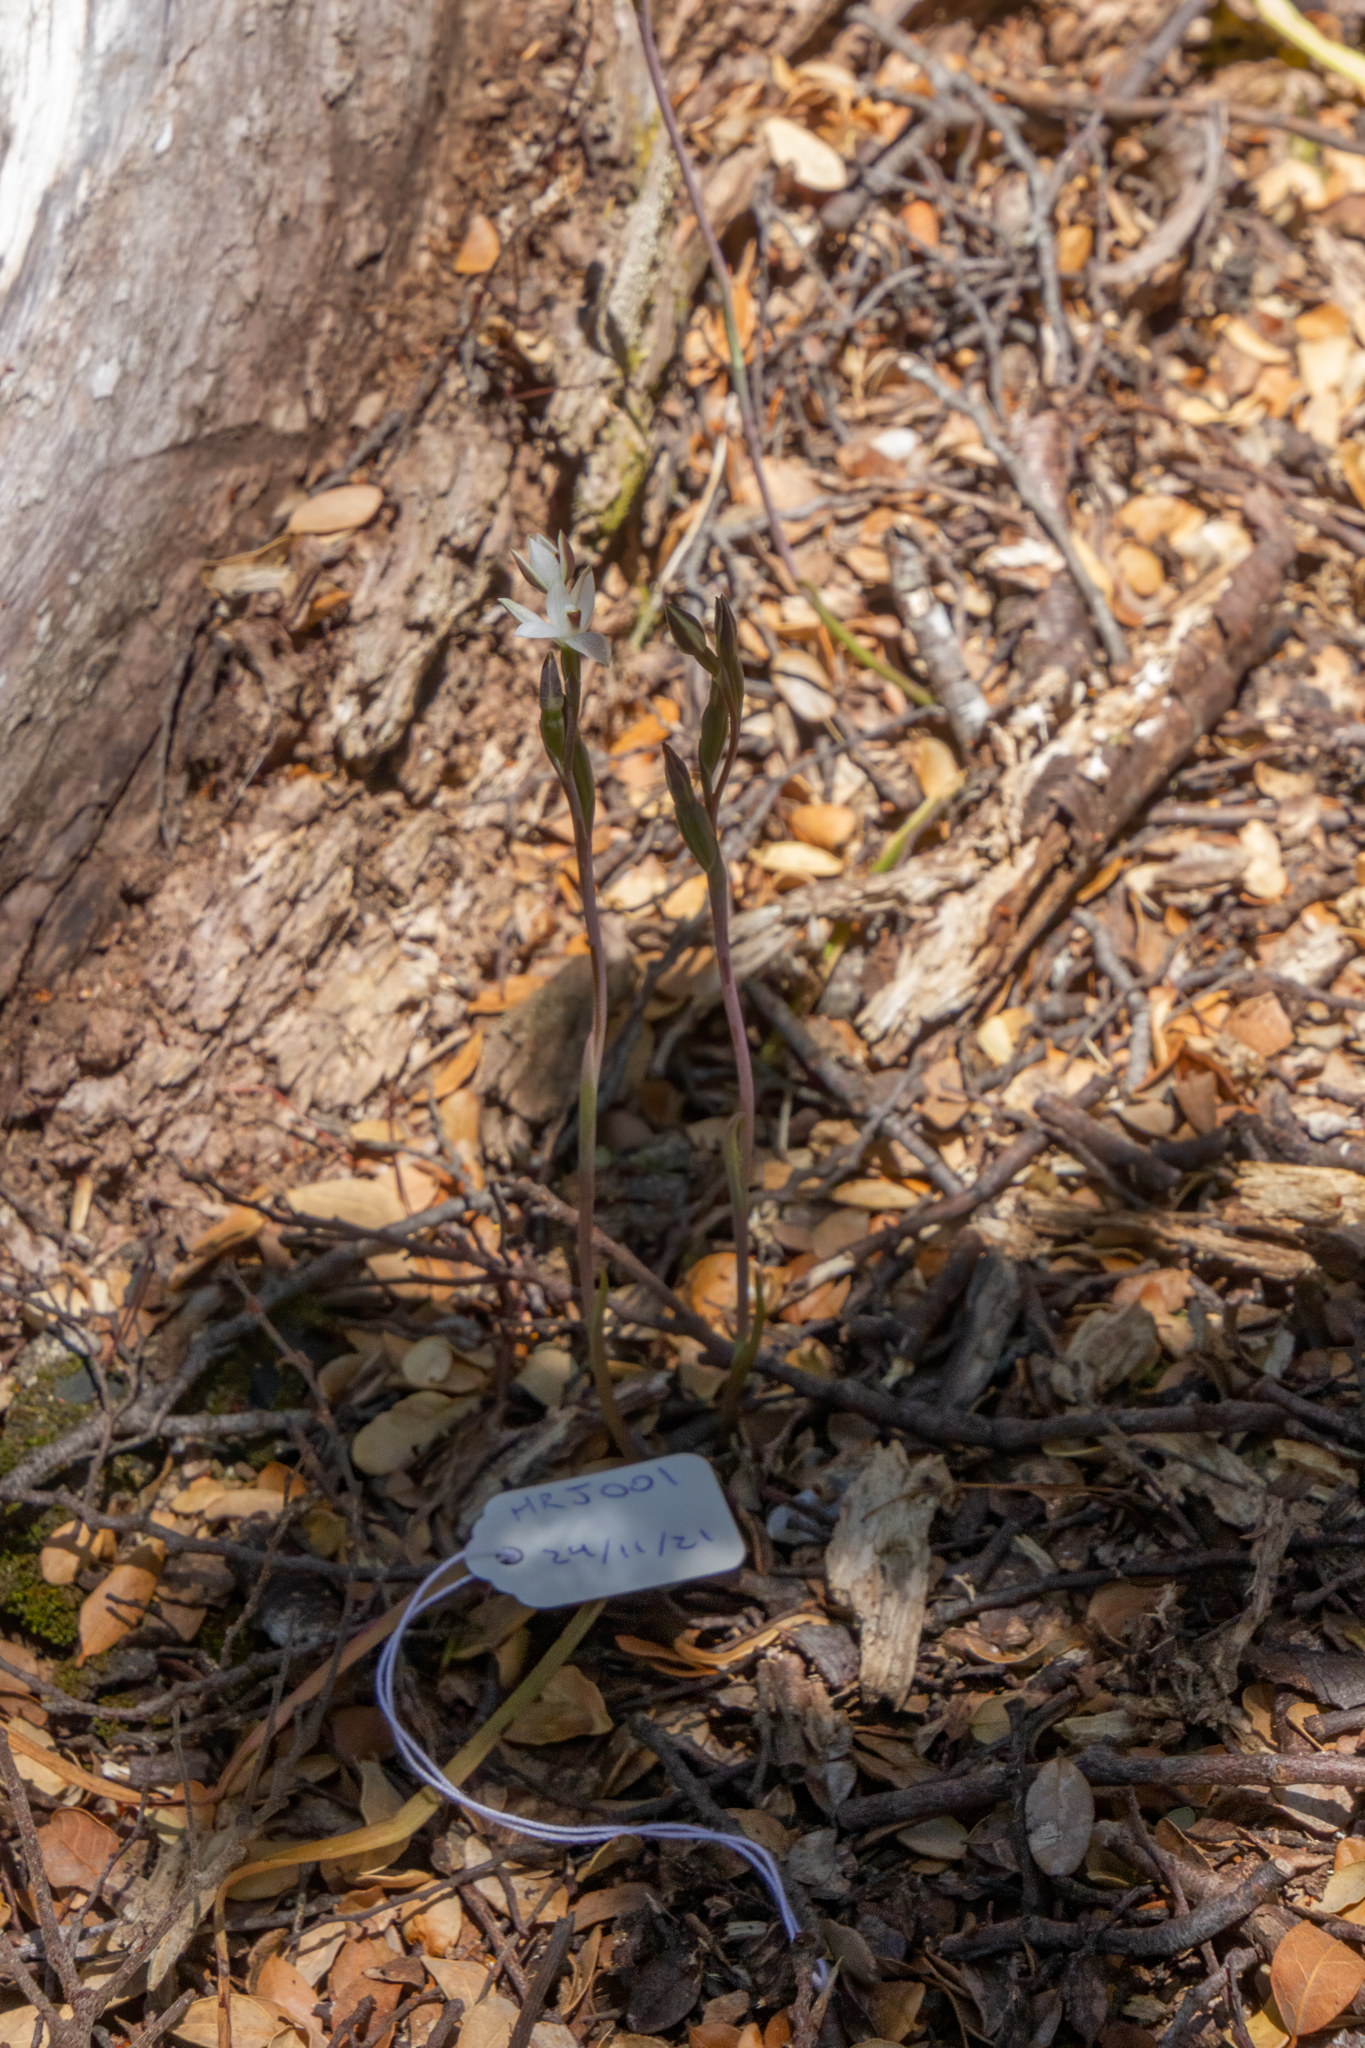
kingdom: Plantae
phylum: Tracheophyta
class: Liliopsida
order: Asparagales
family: Orchidaceae
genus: Thelymitra
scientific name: Thelymitra longifolia
